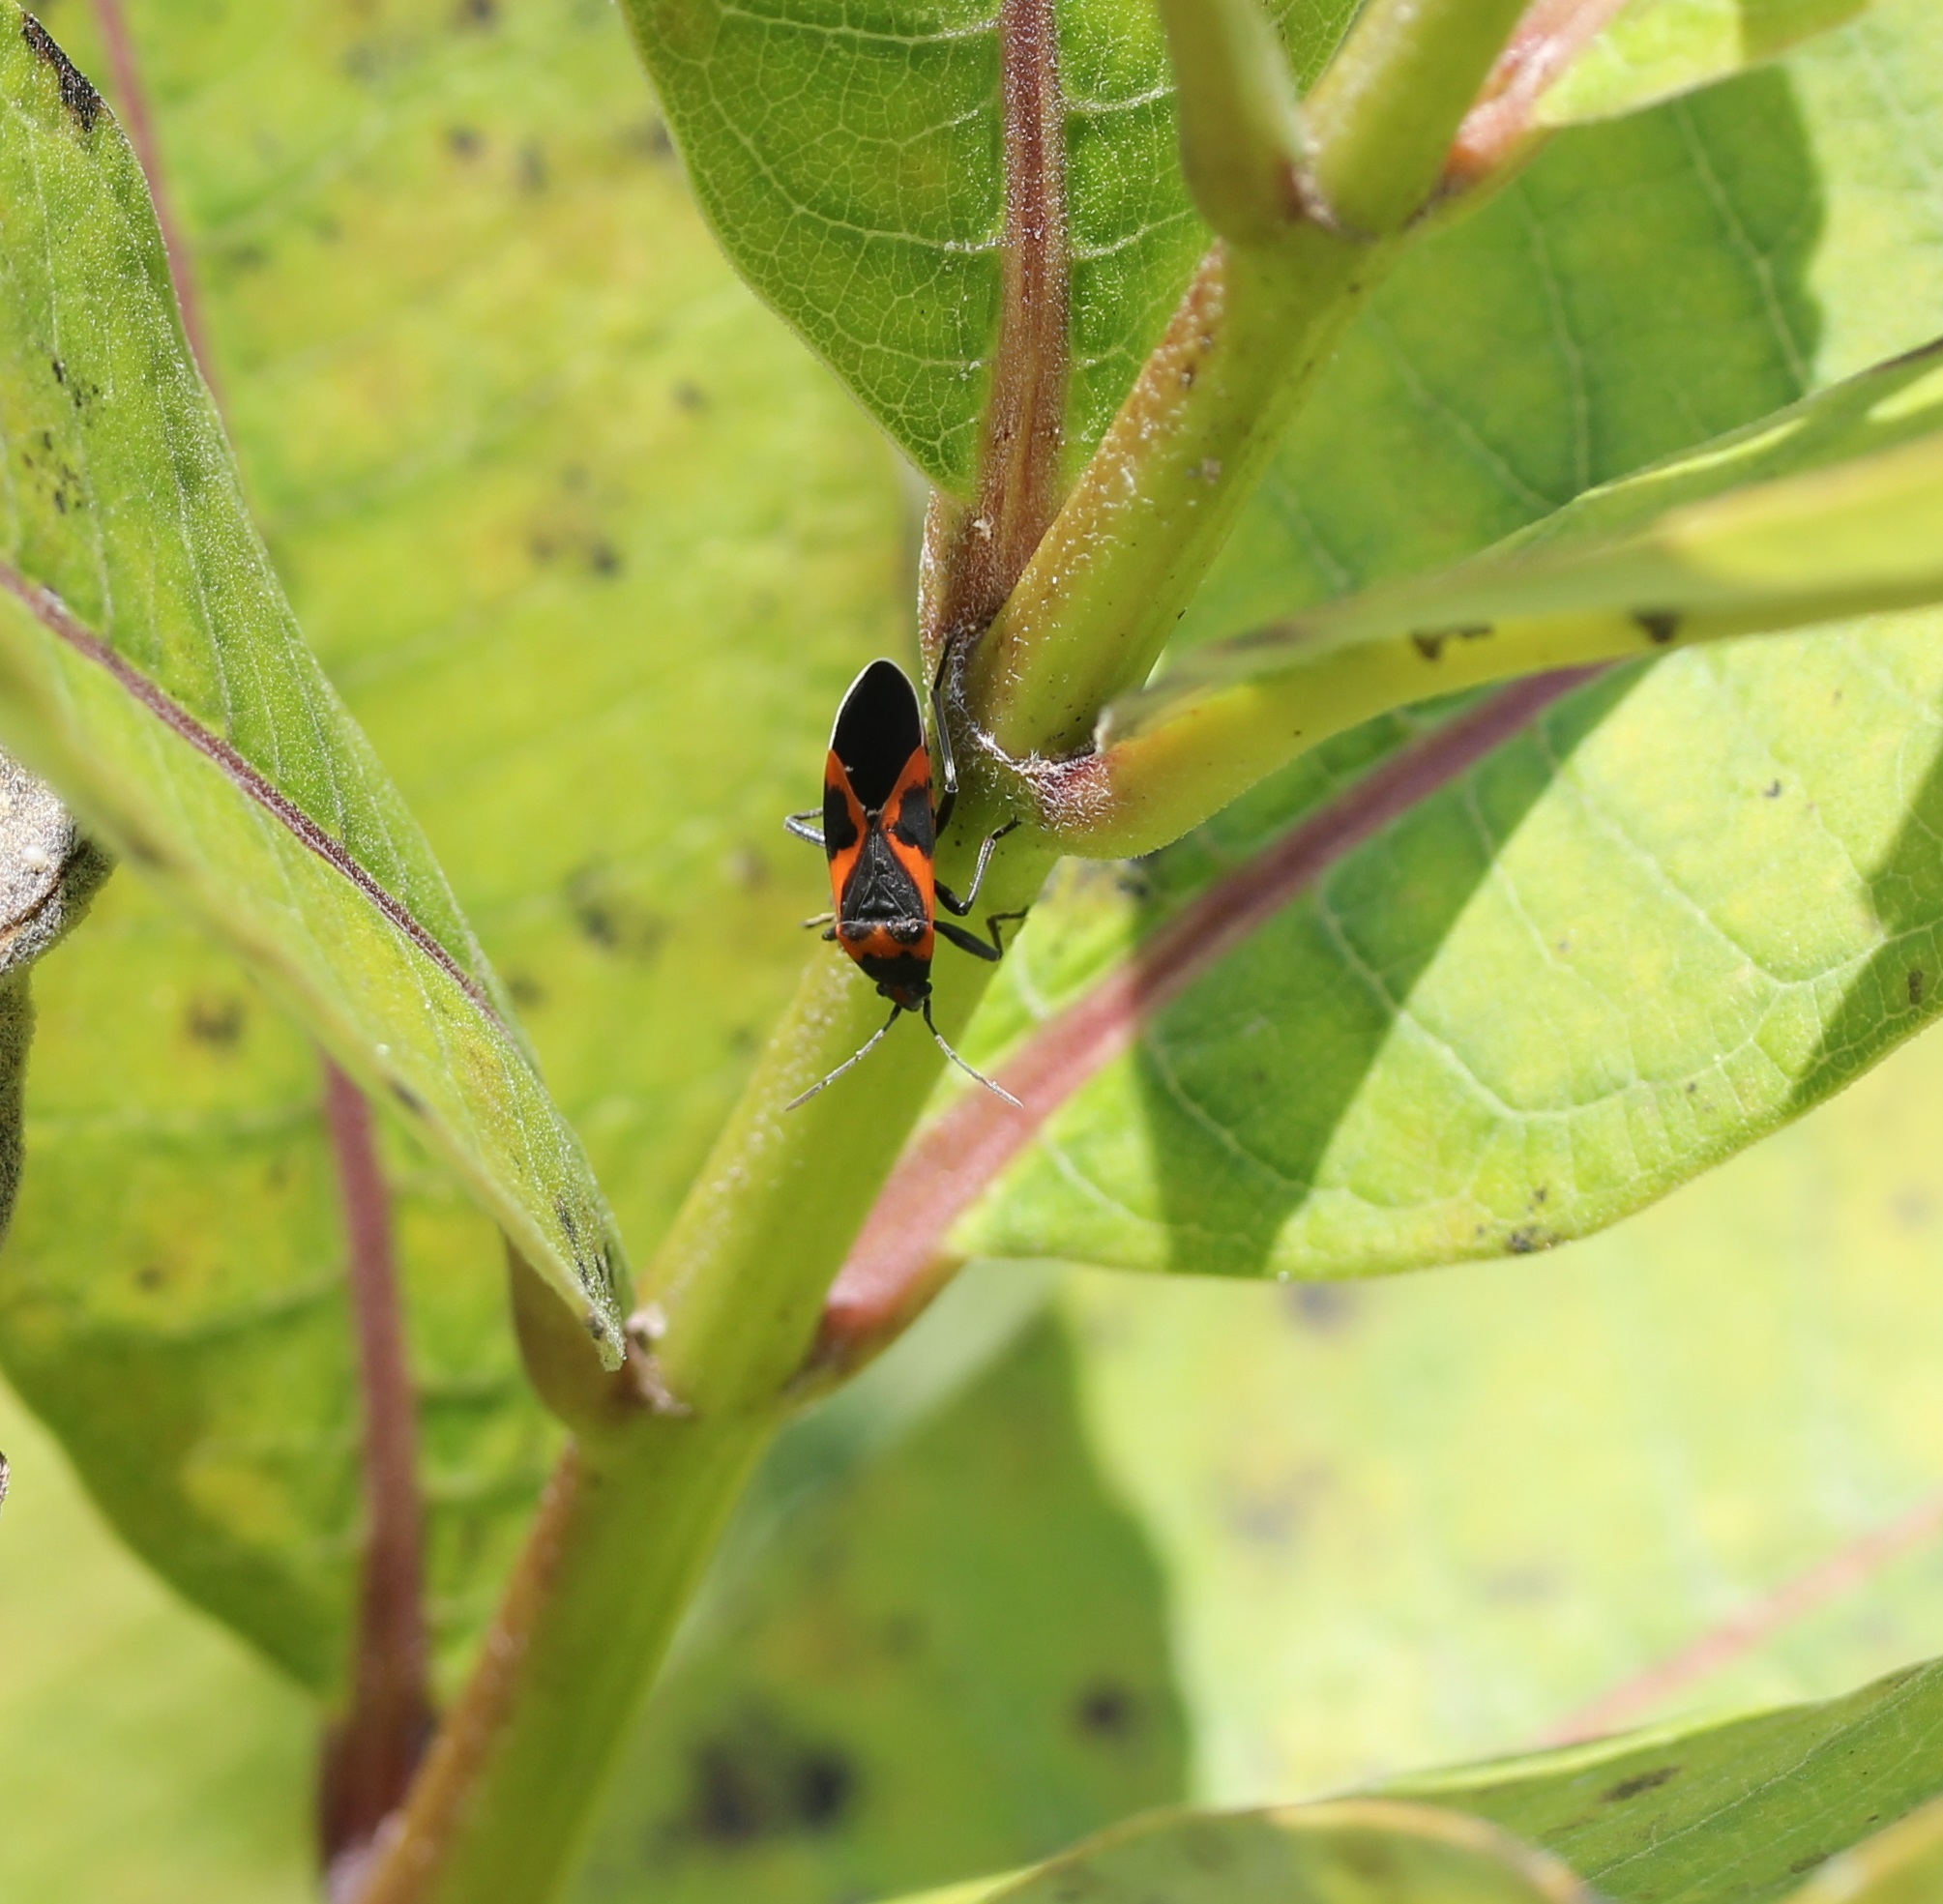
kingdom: Animalia
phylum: Arthropoda
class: Insecta
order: Hemiptera
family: Lygaeidae
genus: Lygaeus
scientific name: Lygaeus kalmii
